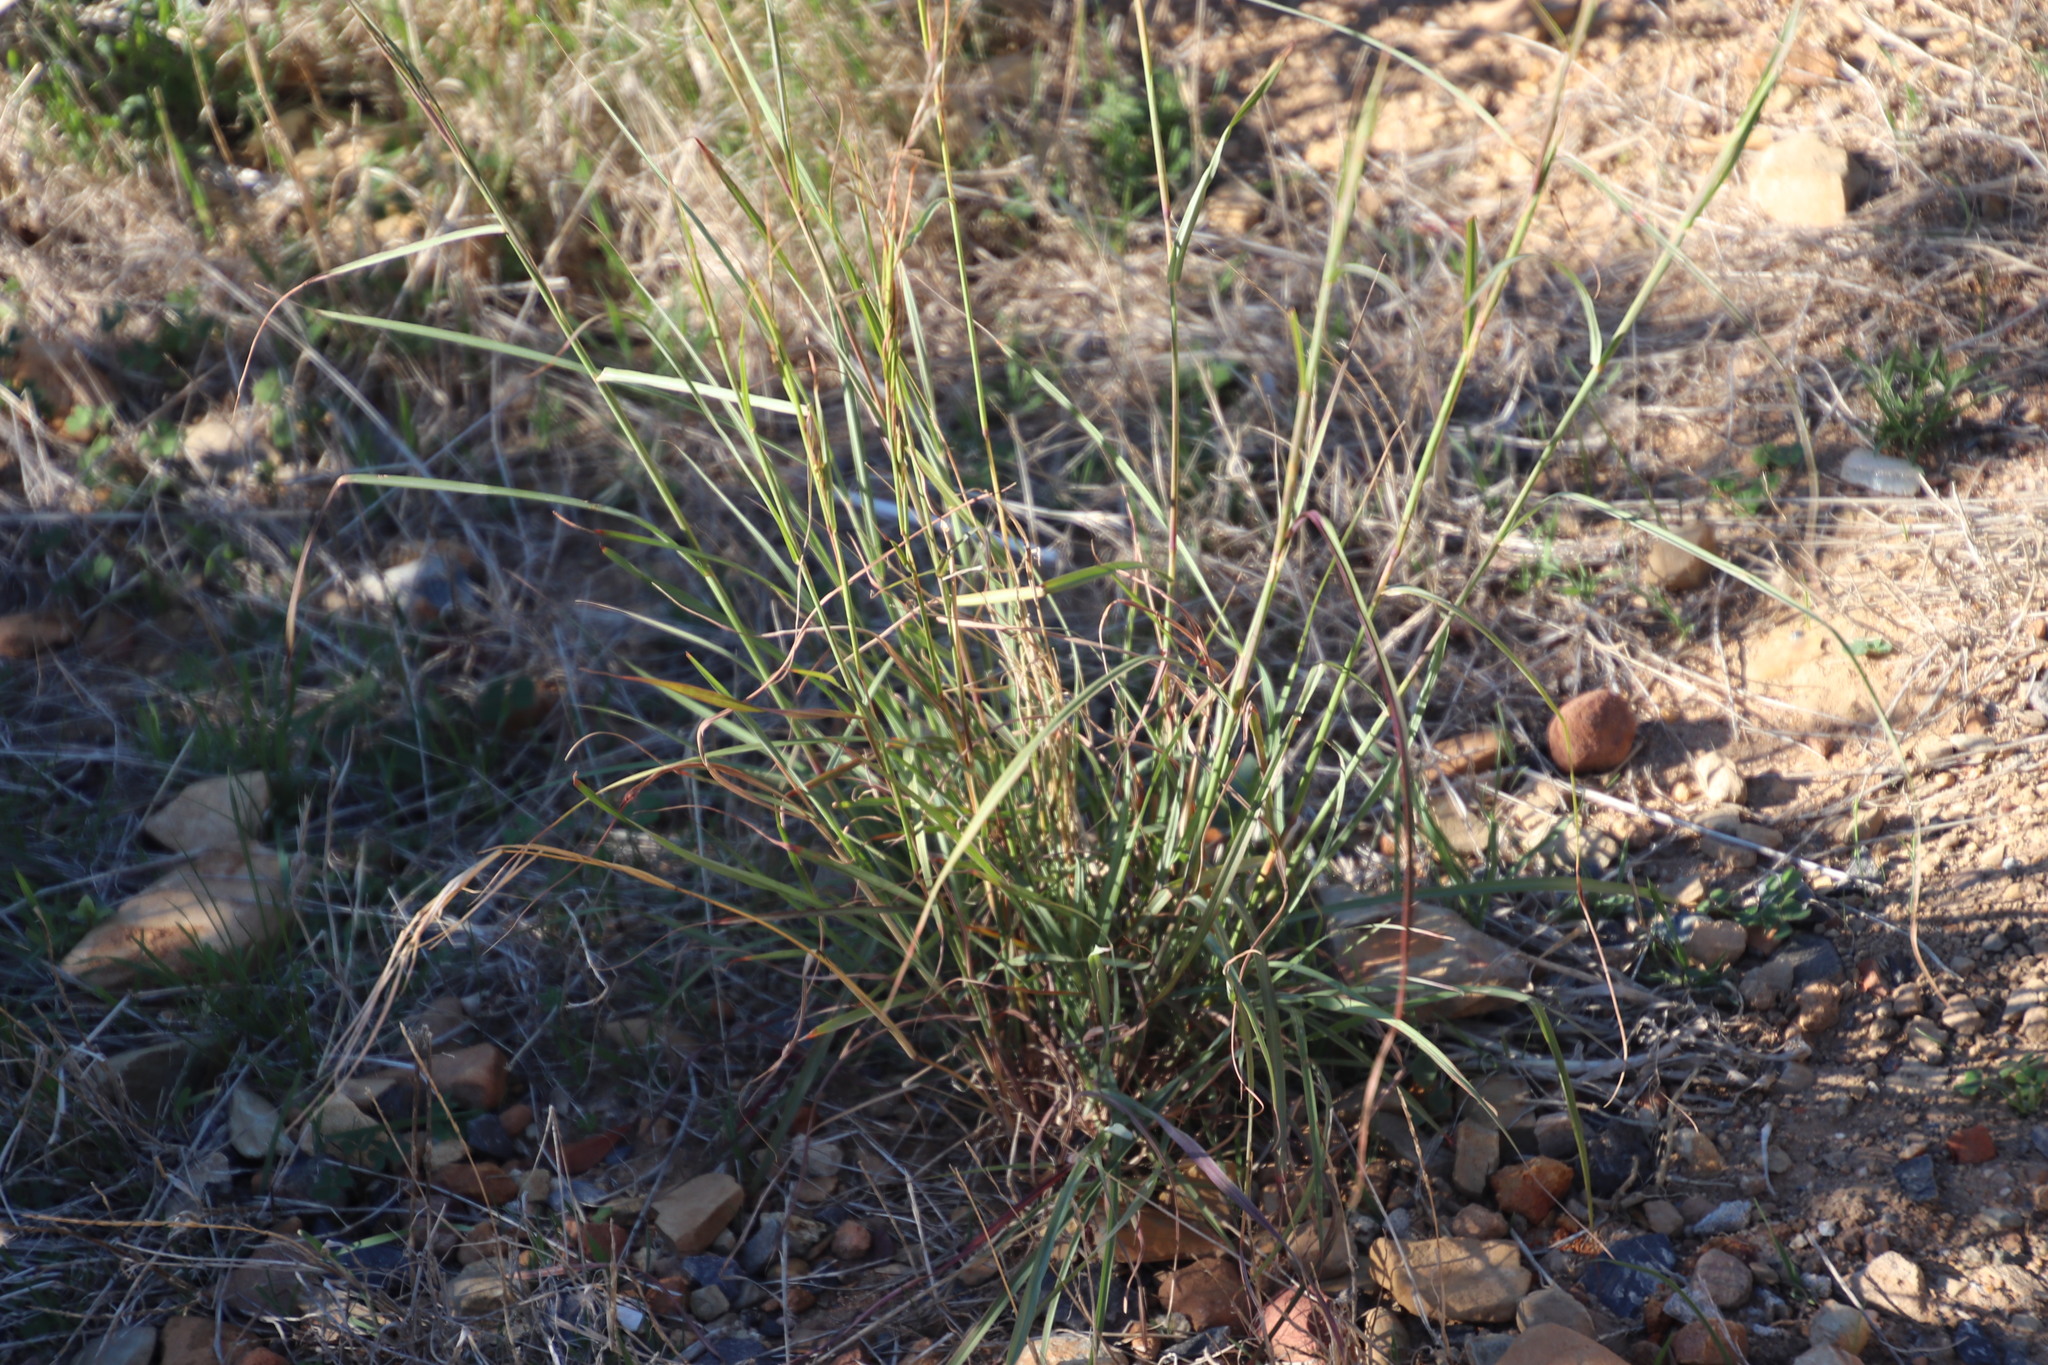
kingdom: Plantae
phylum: Tracheophyta
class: Liliopsida
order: Poales
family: Poaceae
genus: Hyparrhenia
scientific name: Hyparrhenia hirta
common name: Thatching grass
